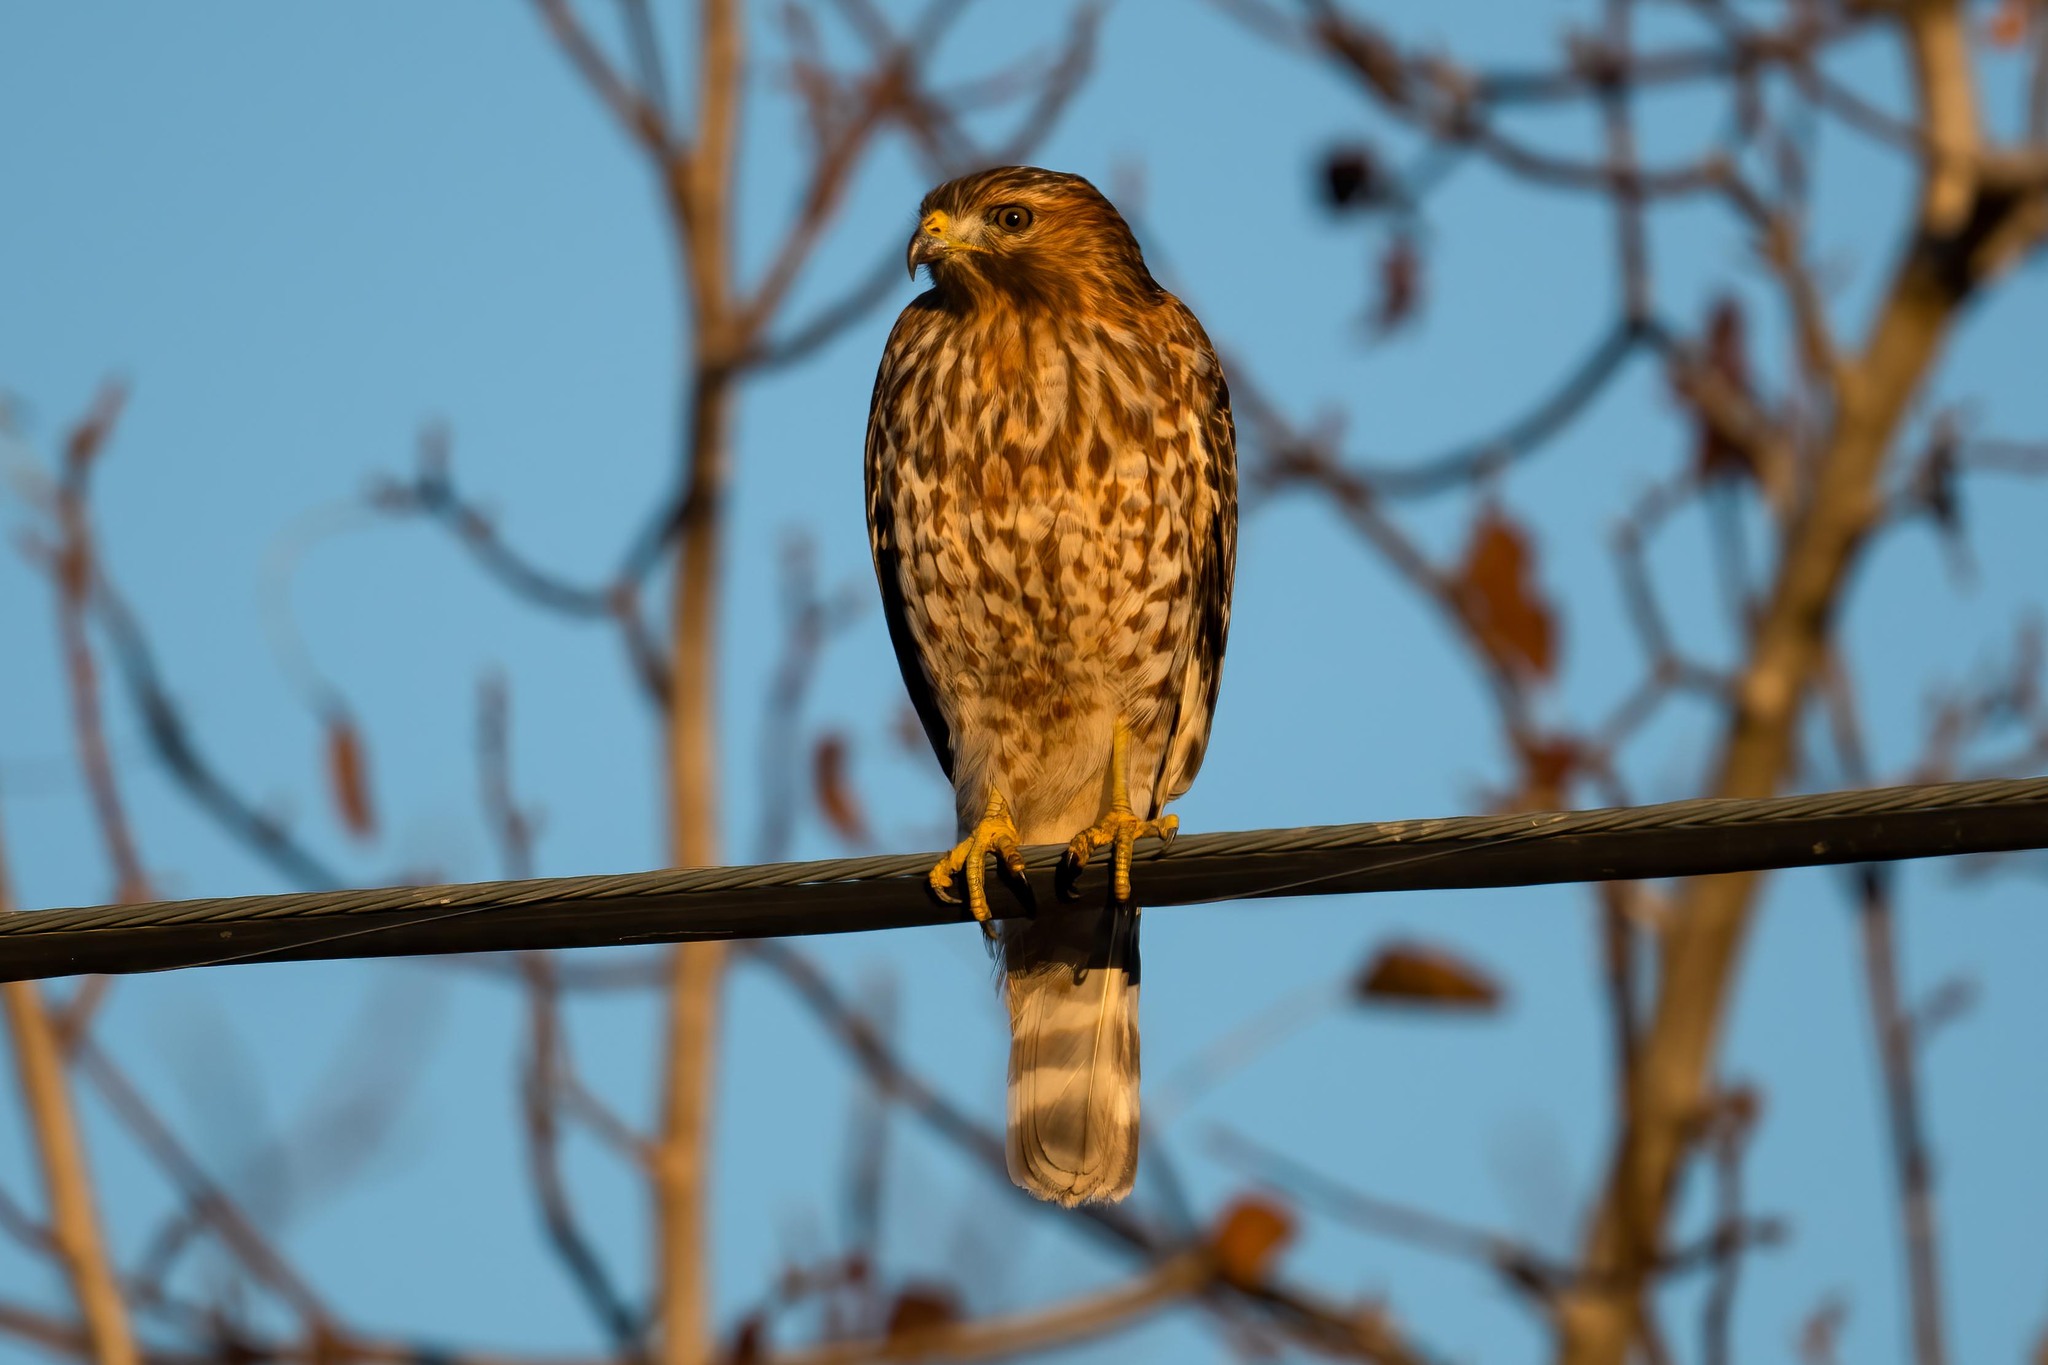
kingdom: Animalia
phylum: Chordata
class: Aves
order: Accipitriformes
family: Accipitridae
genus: Buteo
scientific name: Buteo lineatus
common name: Red-shouldered hawk
